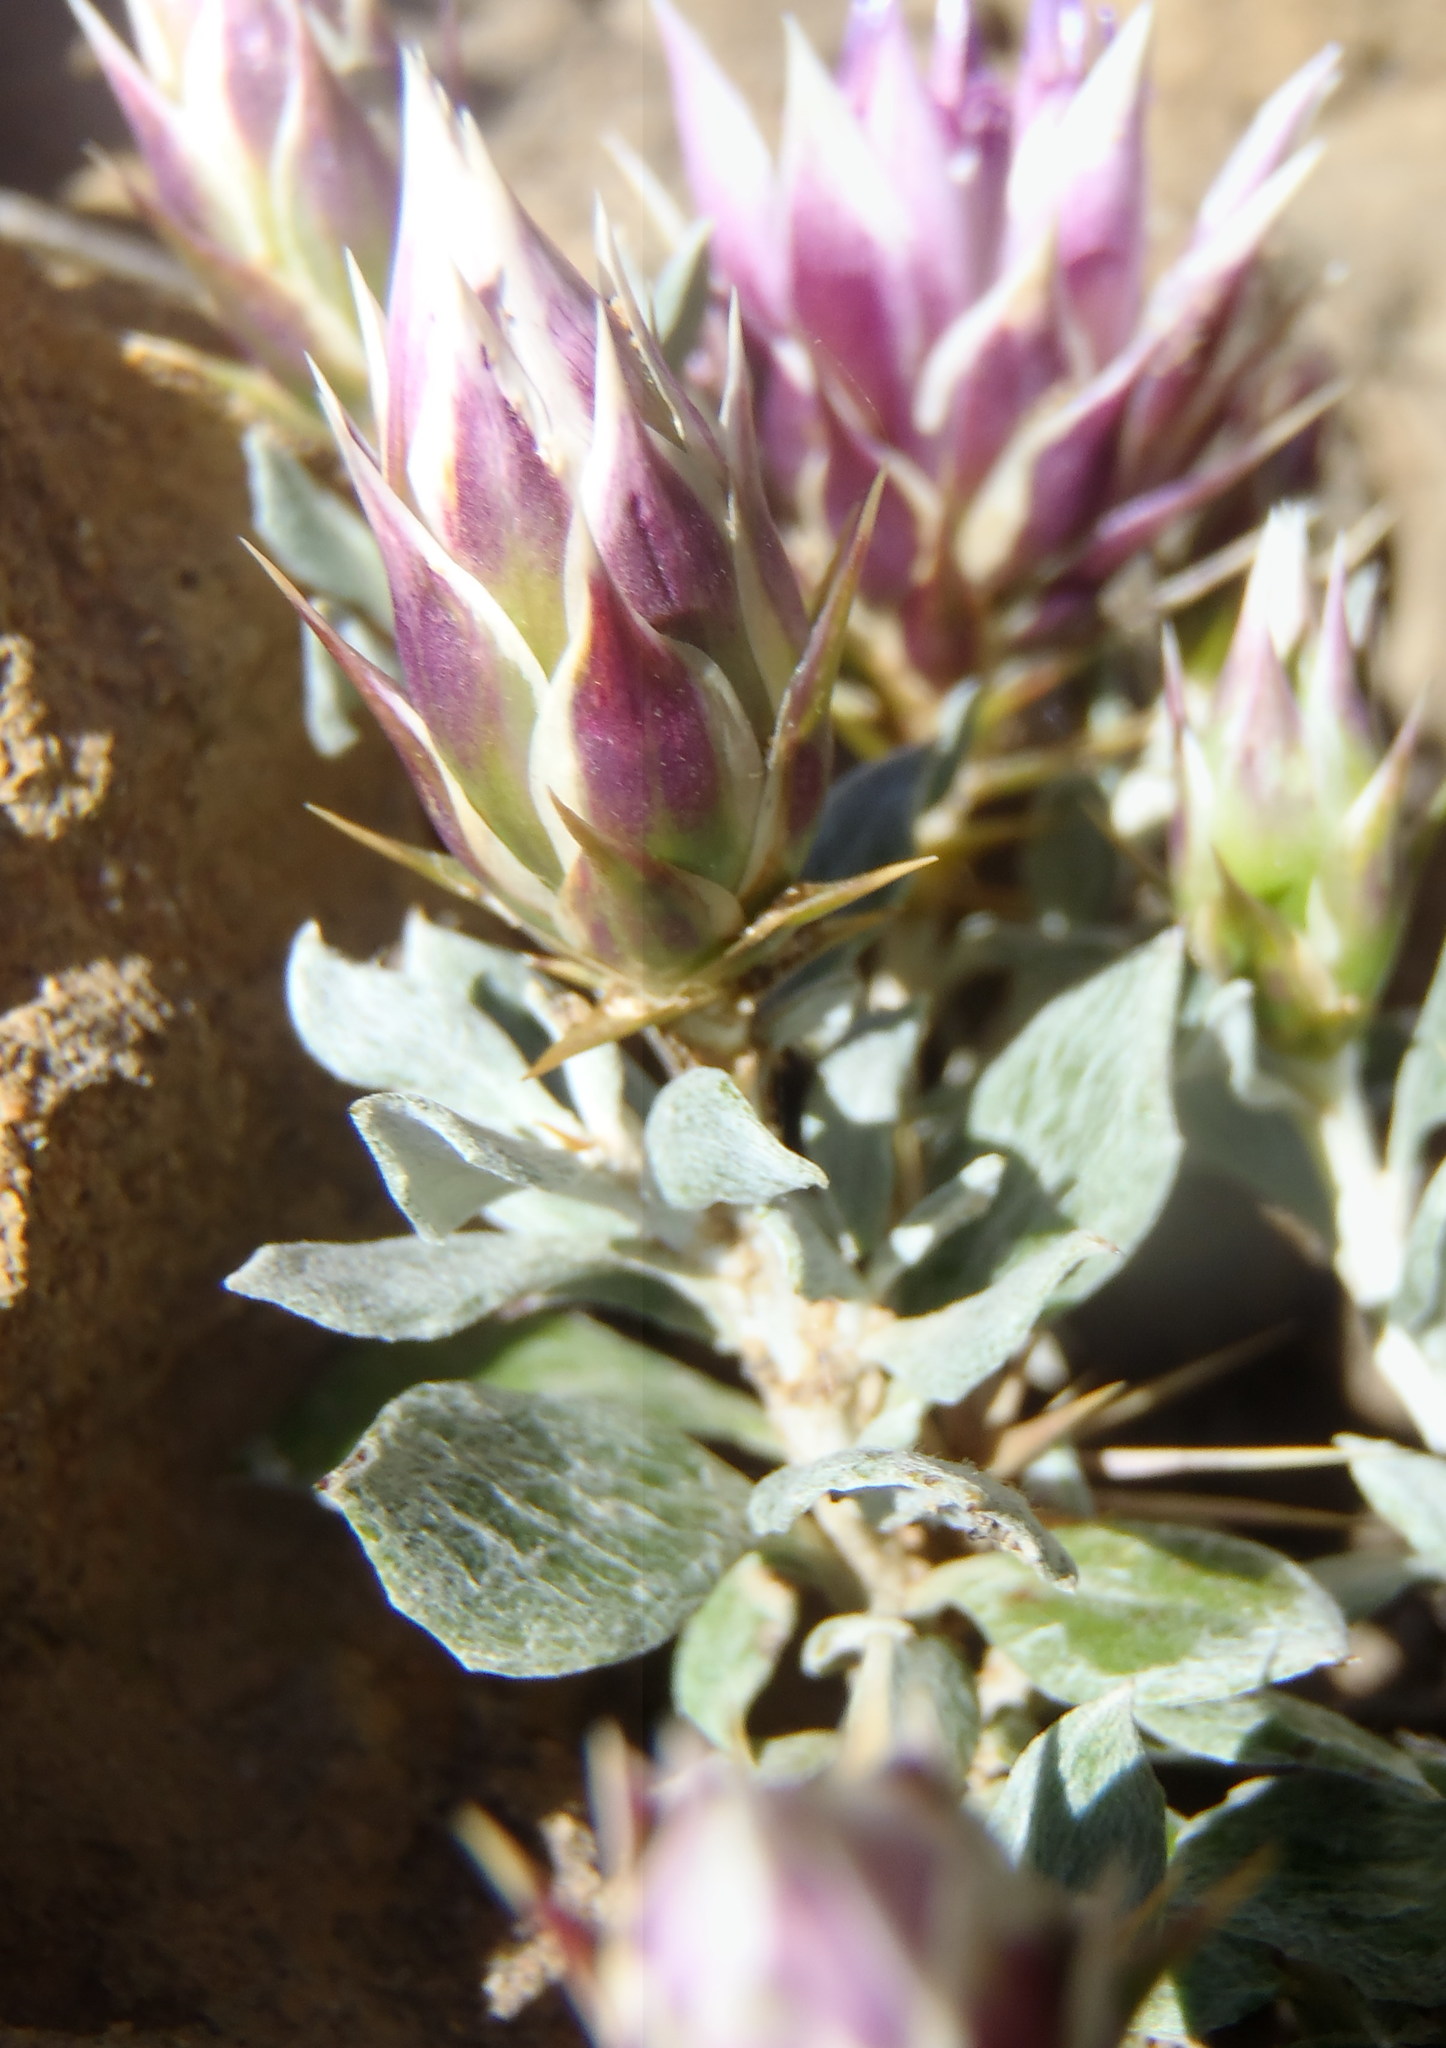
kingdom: Plantae
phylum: Tracheophyta
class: Magnoliopsida
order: Asterales
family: Asteraceae
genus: Macledium
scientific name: Macledium spinosum
